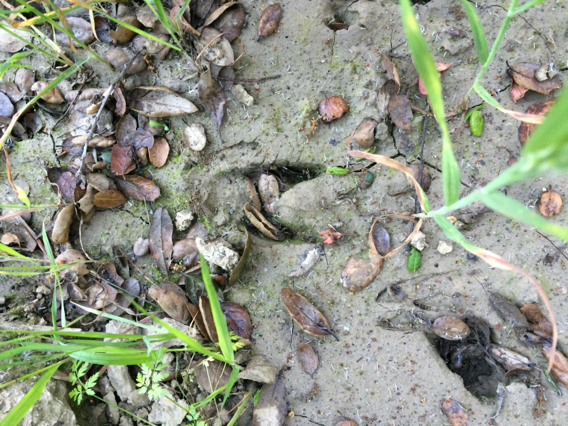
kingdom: Animalia
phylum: Chordata
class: Mammalia
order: Artiodactyla
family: Cervidae
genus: Odocoileus
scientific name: Odocoileus hemionus
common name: Mule deer
